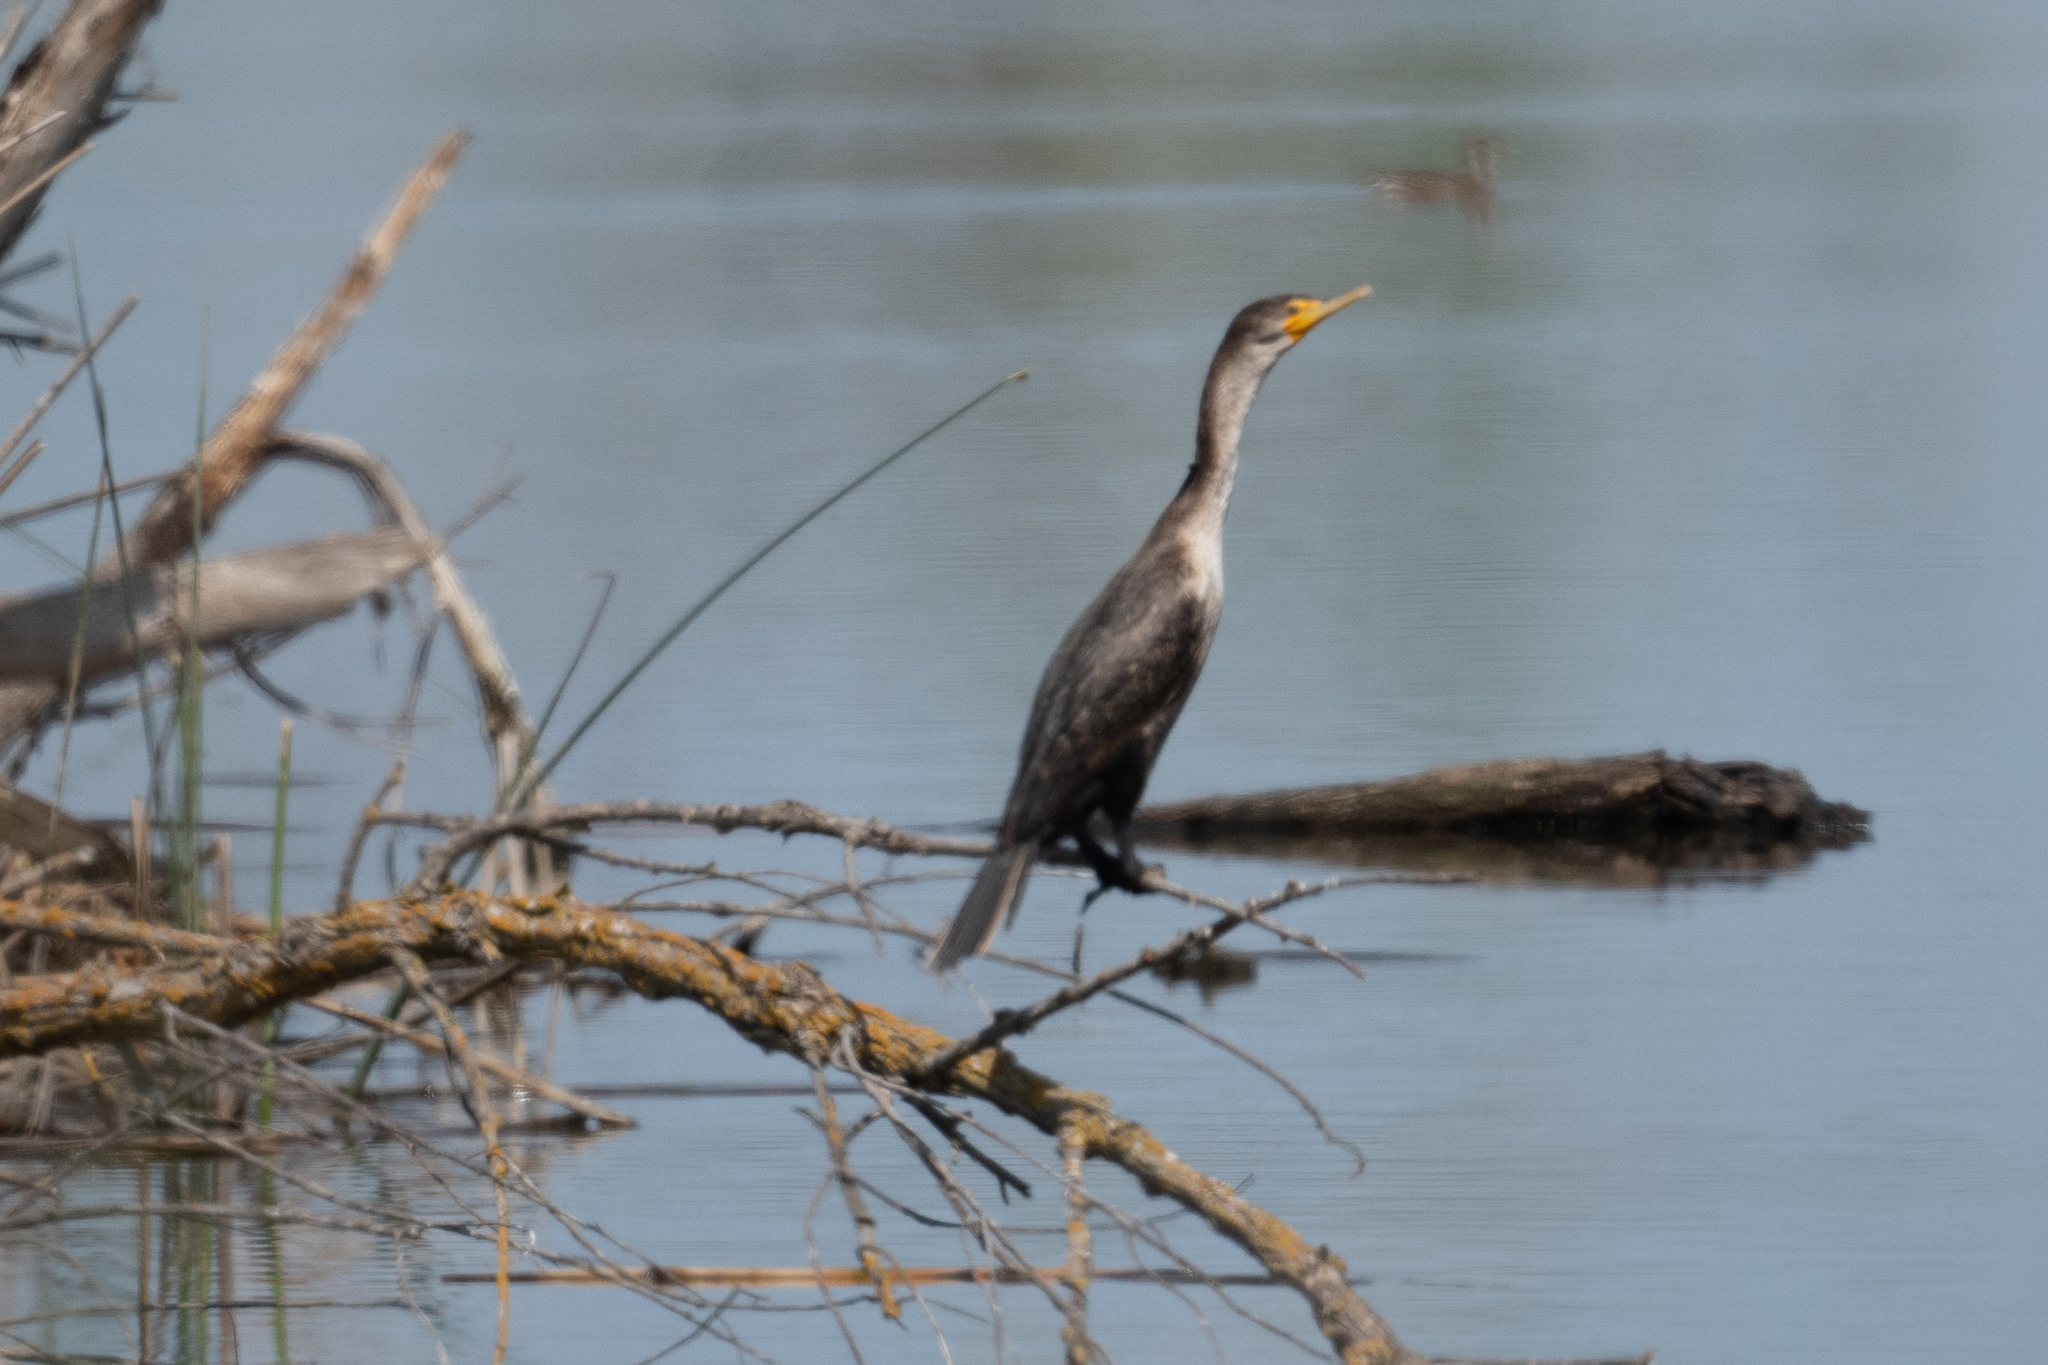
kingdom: Animalia
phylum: Chordata
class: Aves
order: Suliformes
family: Phalacrocoracidae
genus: Phalacrocorax
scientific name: Phalacrocorax auritus
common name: Double-crested cormorant
